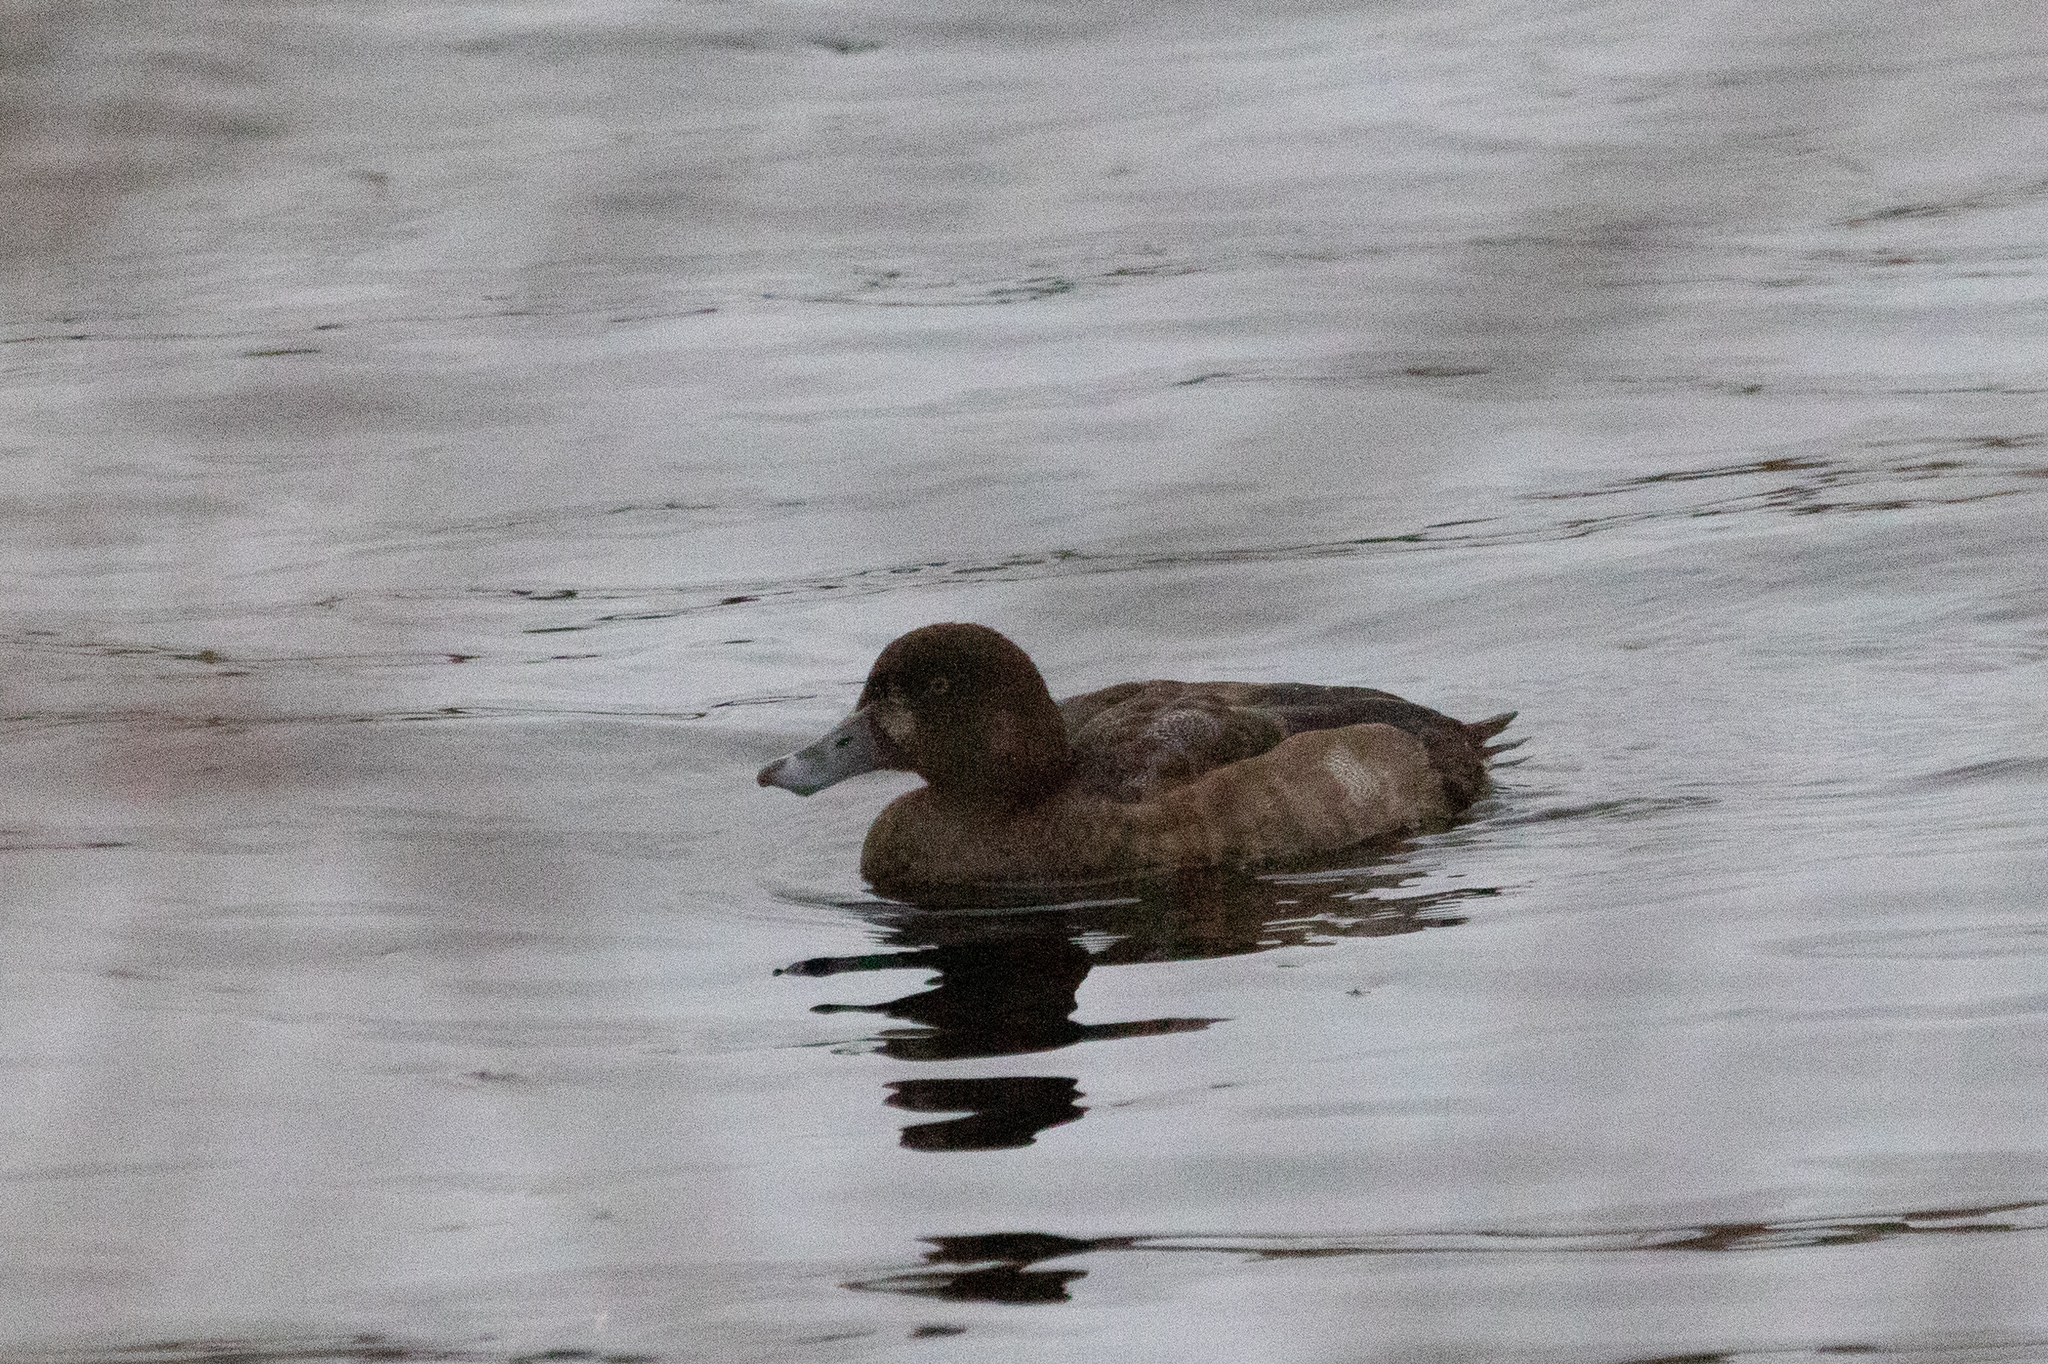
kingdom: Animalia
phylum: Chordata
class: Aves
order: Anseriformes
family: Anatidae
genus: Aythya
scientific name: Aythya marila
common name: Greater scaup
